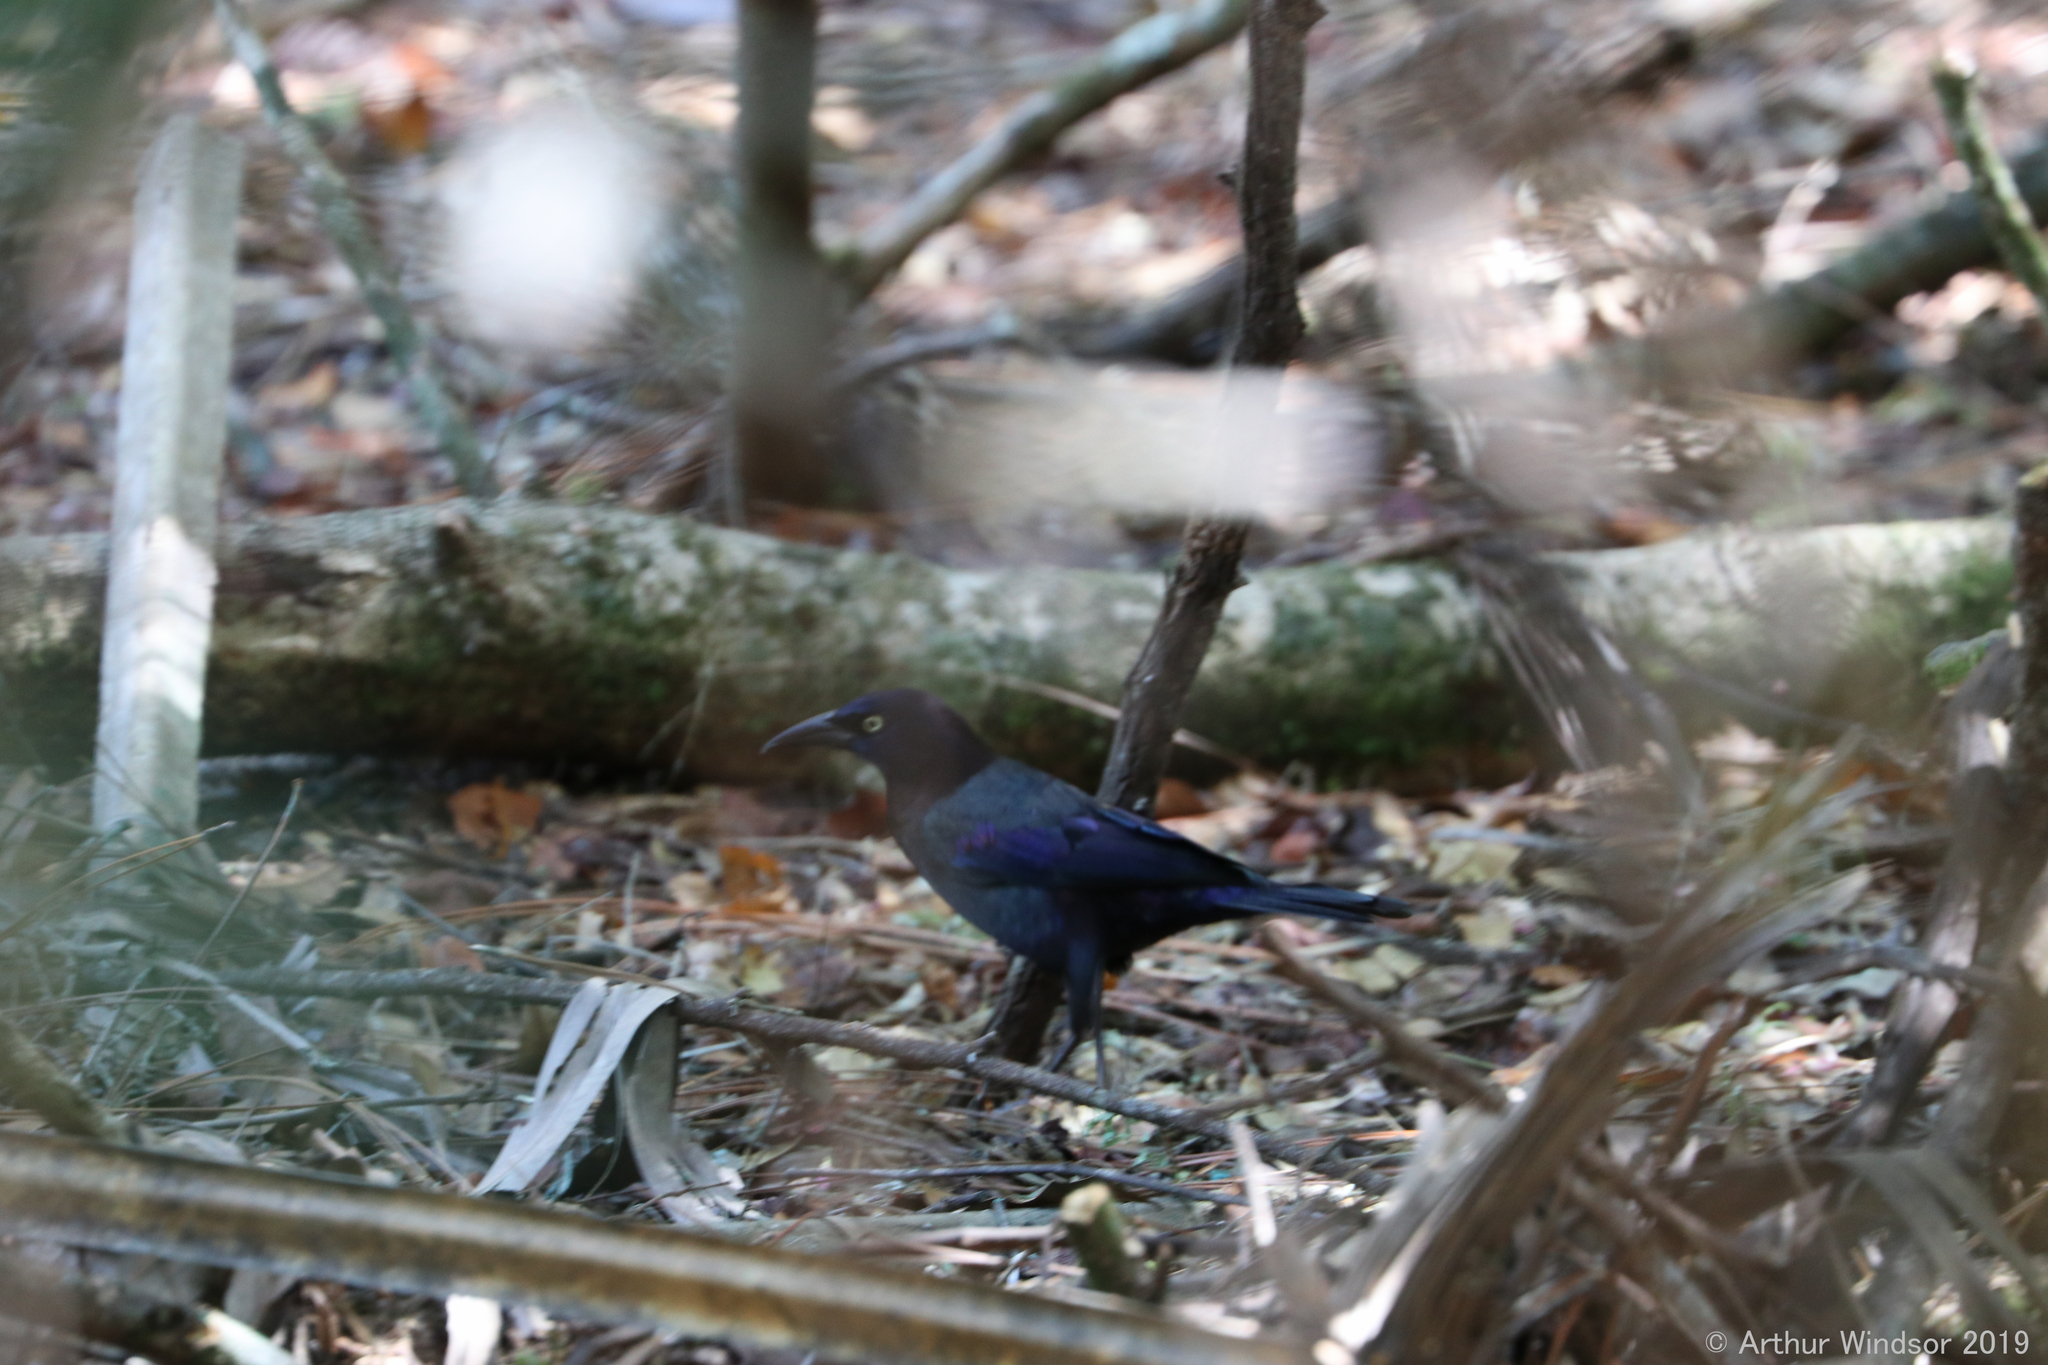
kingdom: Animalia
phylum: Chordata
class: Aves
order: Passeriformes
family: Icteridae
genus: Quiscalus
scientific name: Quiscalus quiscula
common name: Common grackle
